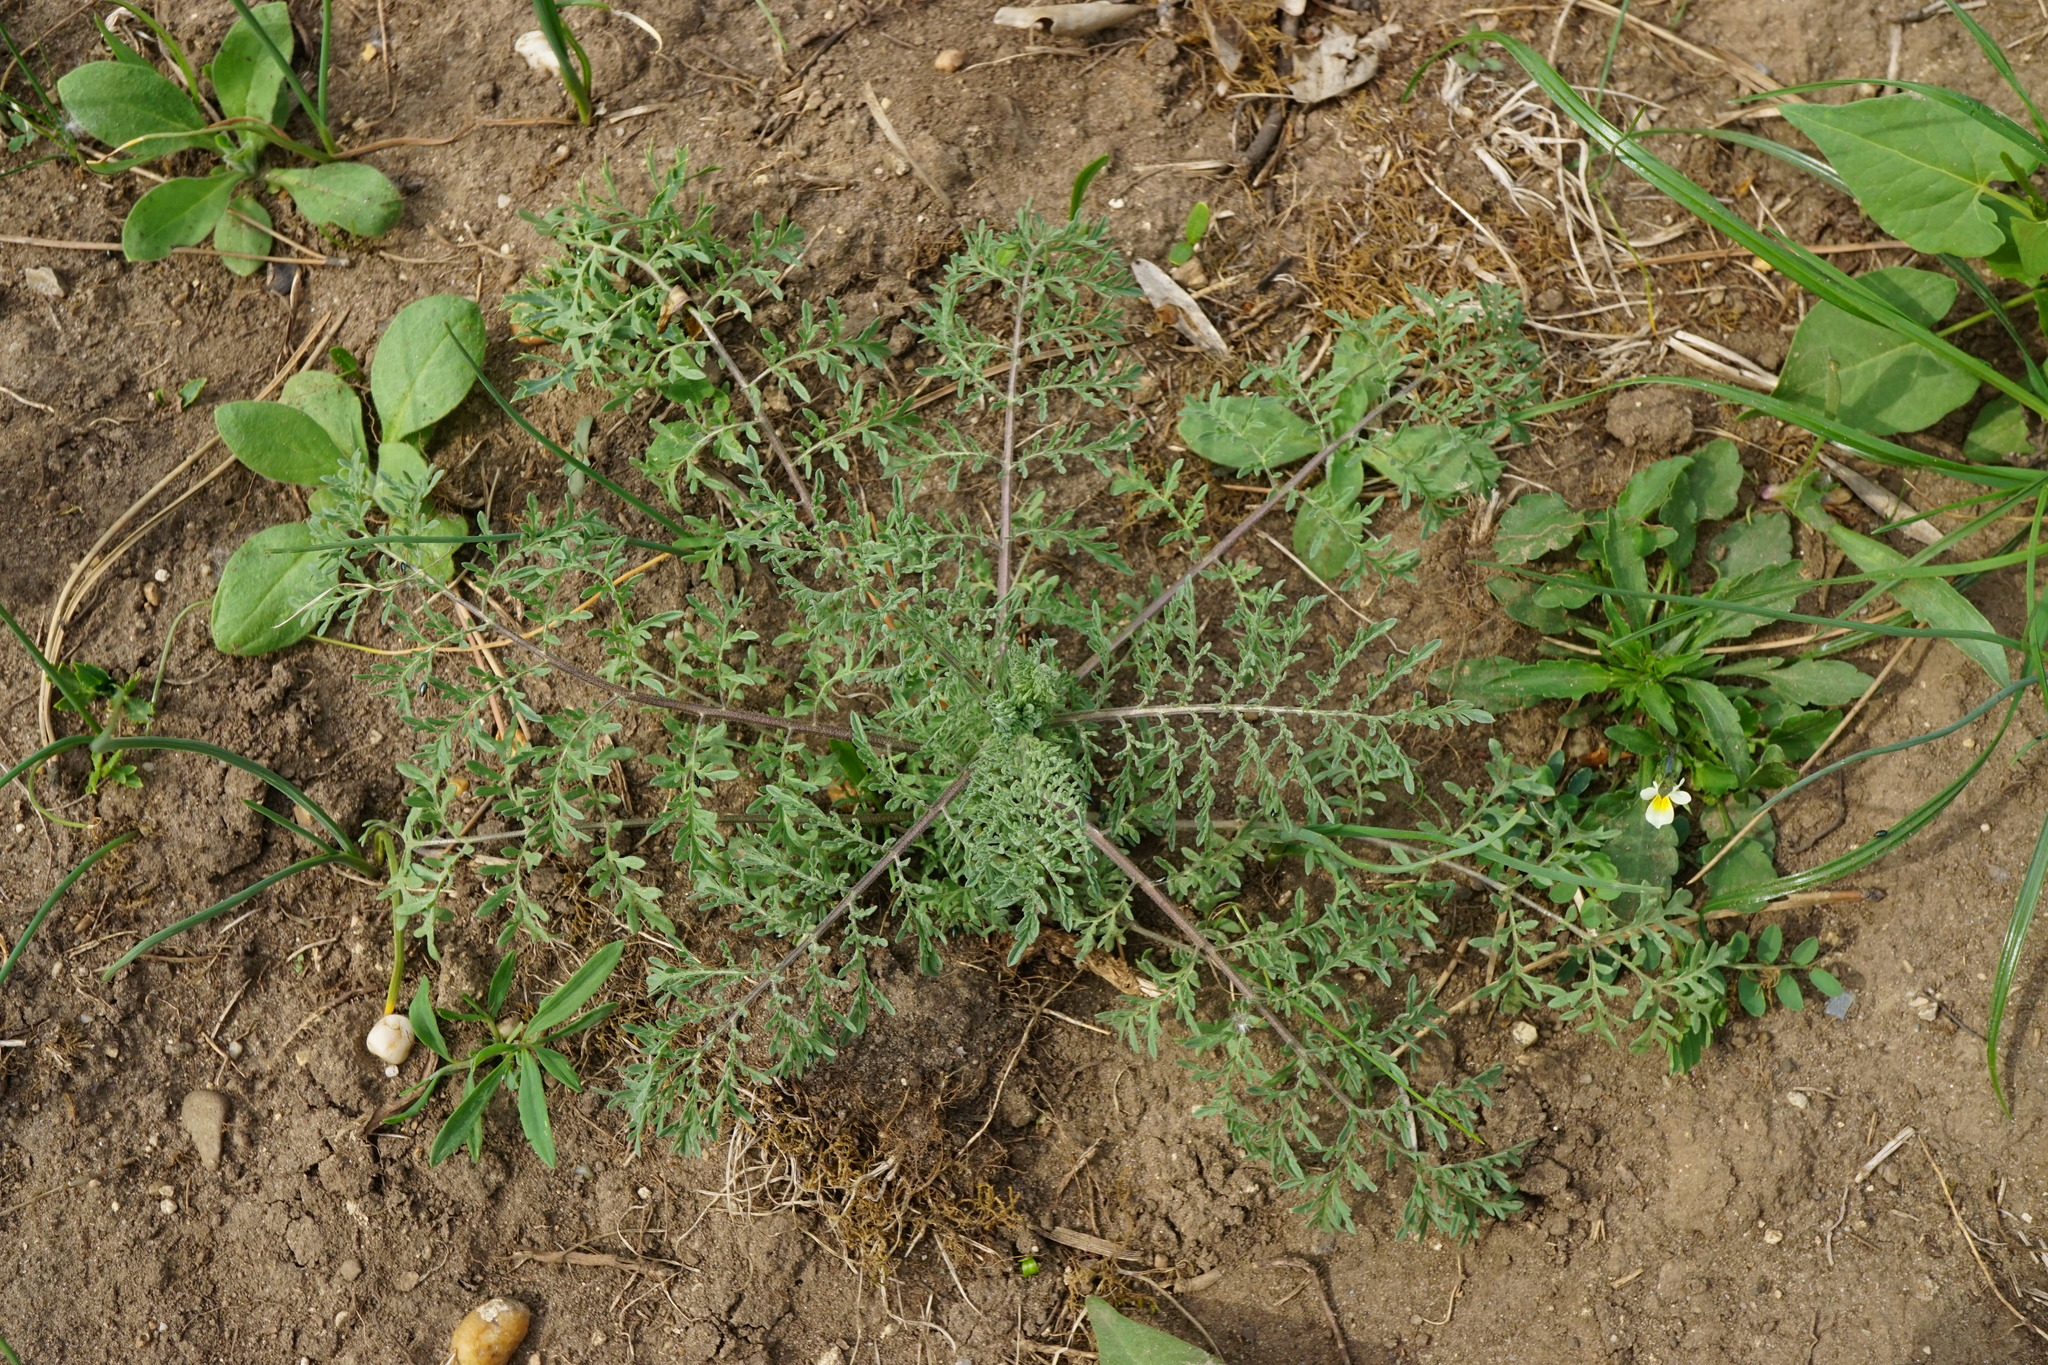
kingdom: Plantae
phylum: Tracheophyta
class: Magnoliopsida
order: Brassicales
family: Brassicaceae
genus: Descurainia
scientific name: Descurainia sophia
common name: Flixweed
